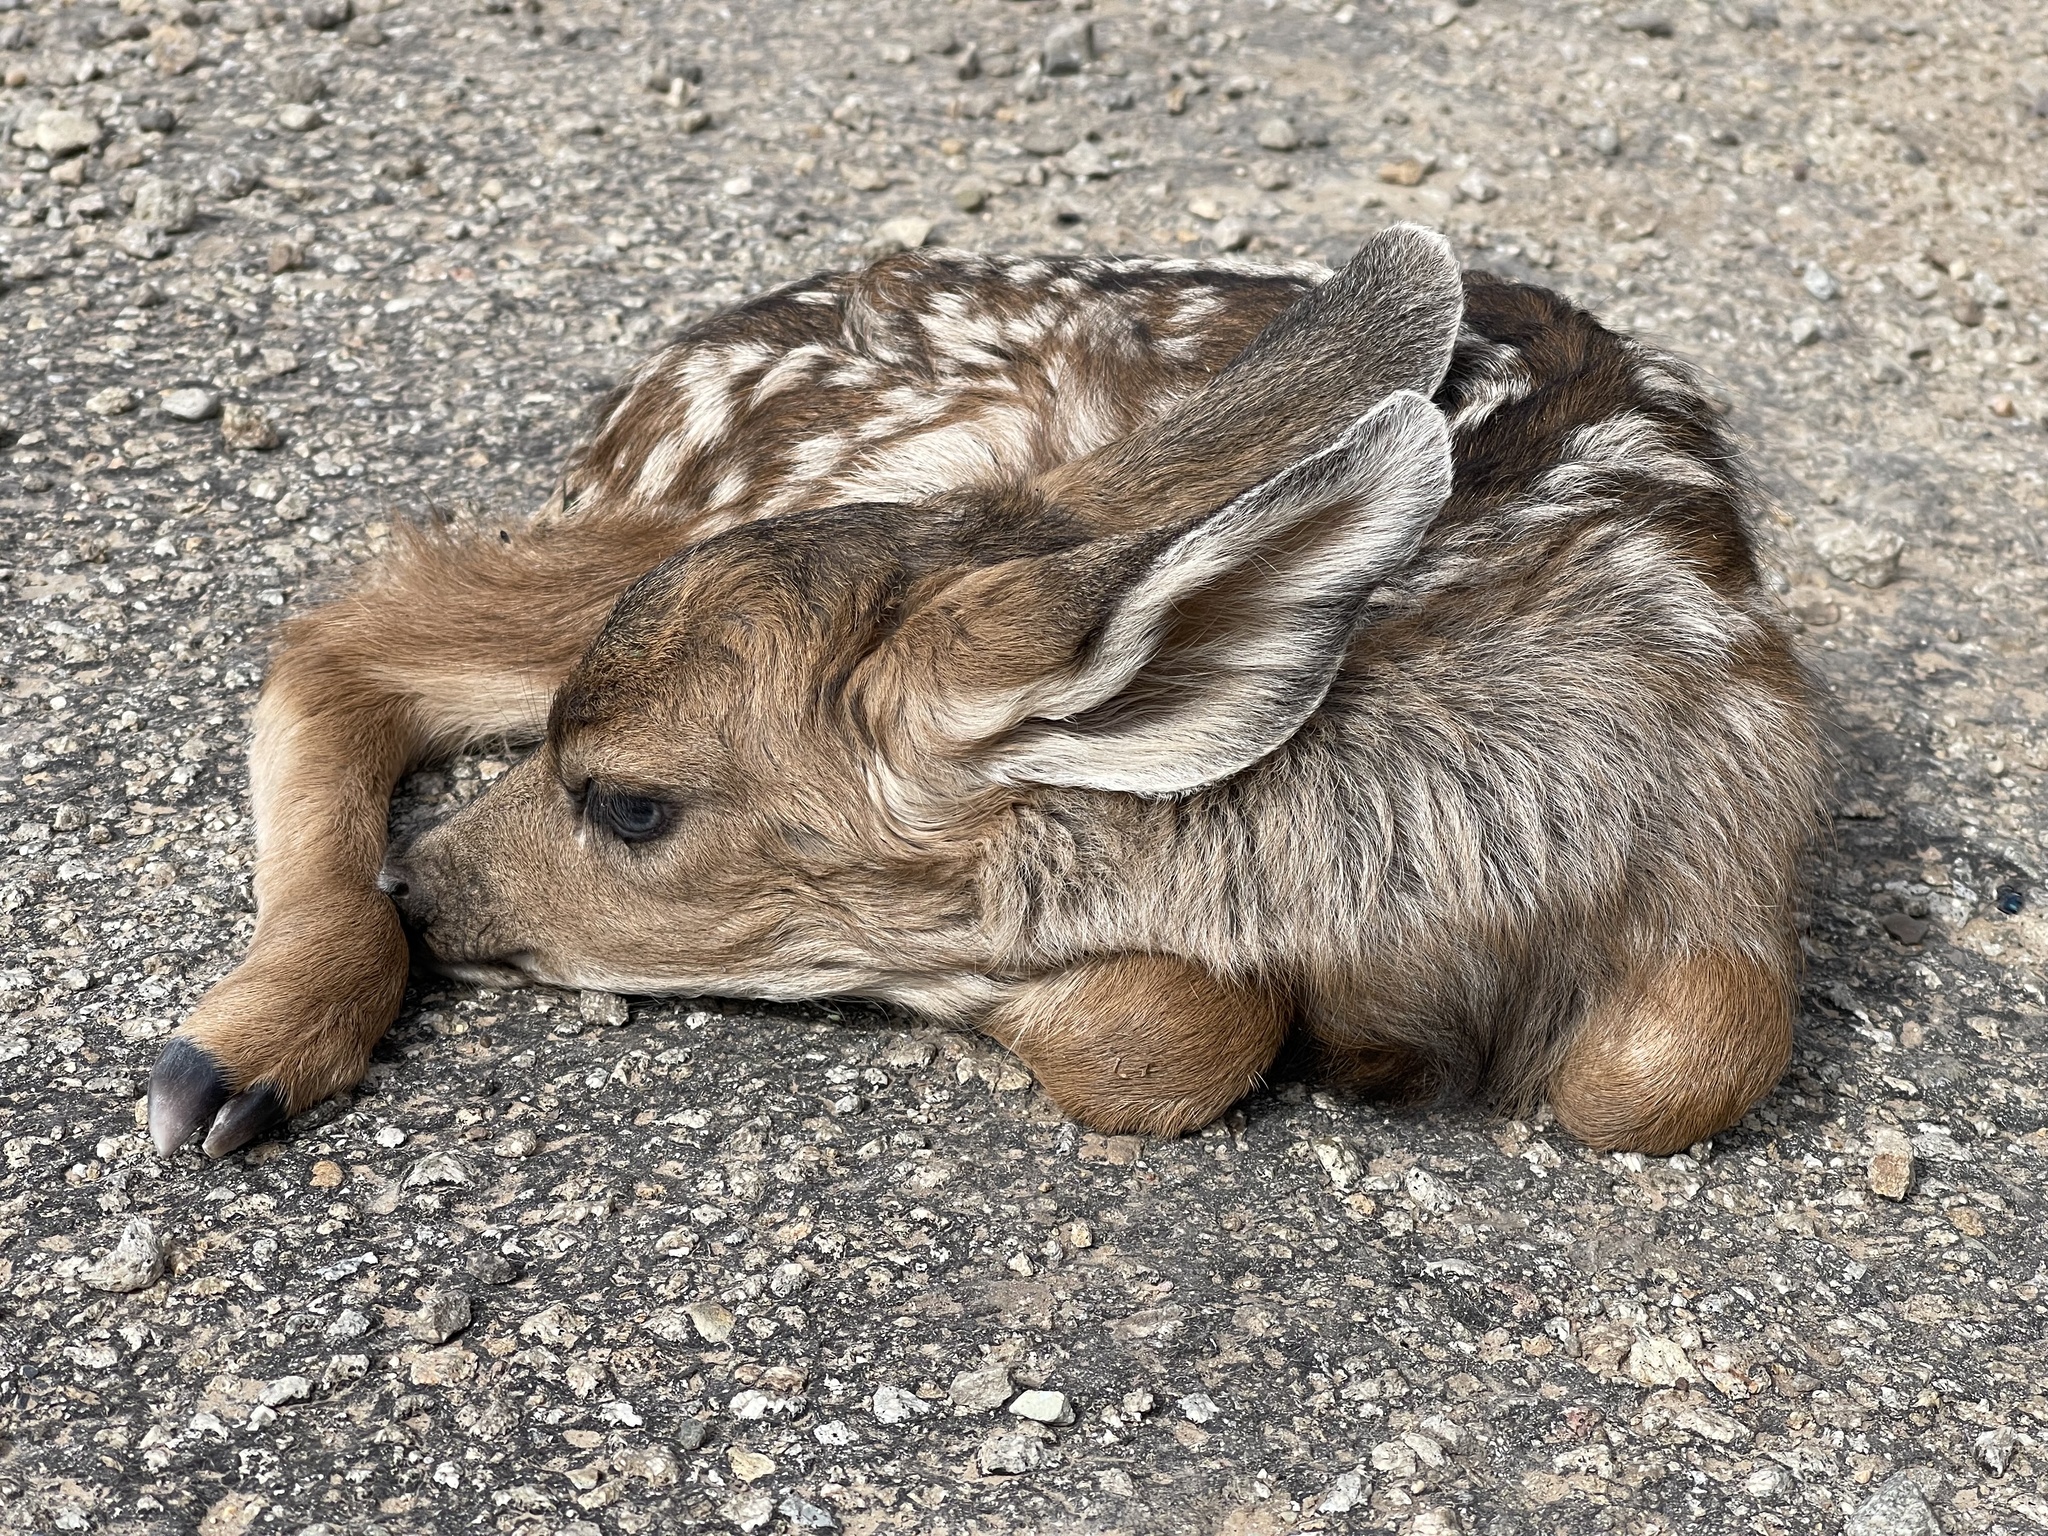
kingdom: Animalia
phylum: Chordata
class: Mammalia
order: Artiodactyla
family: Cervidae
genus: Odocoileus
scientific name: Odocoileus hemionus
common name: Mule deer
